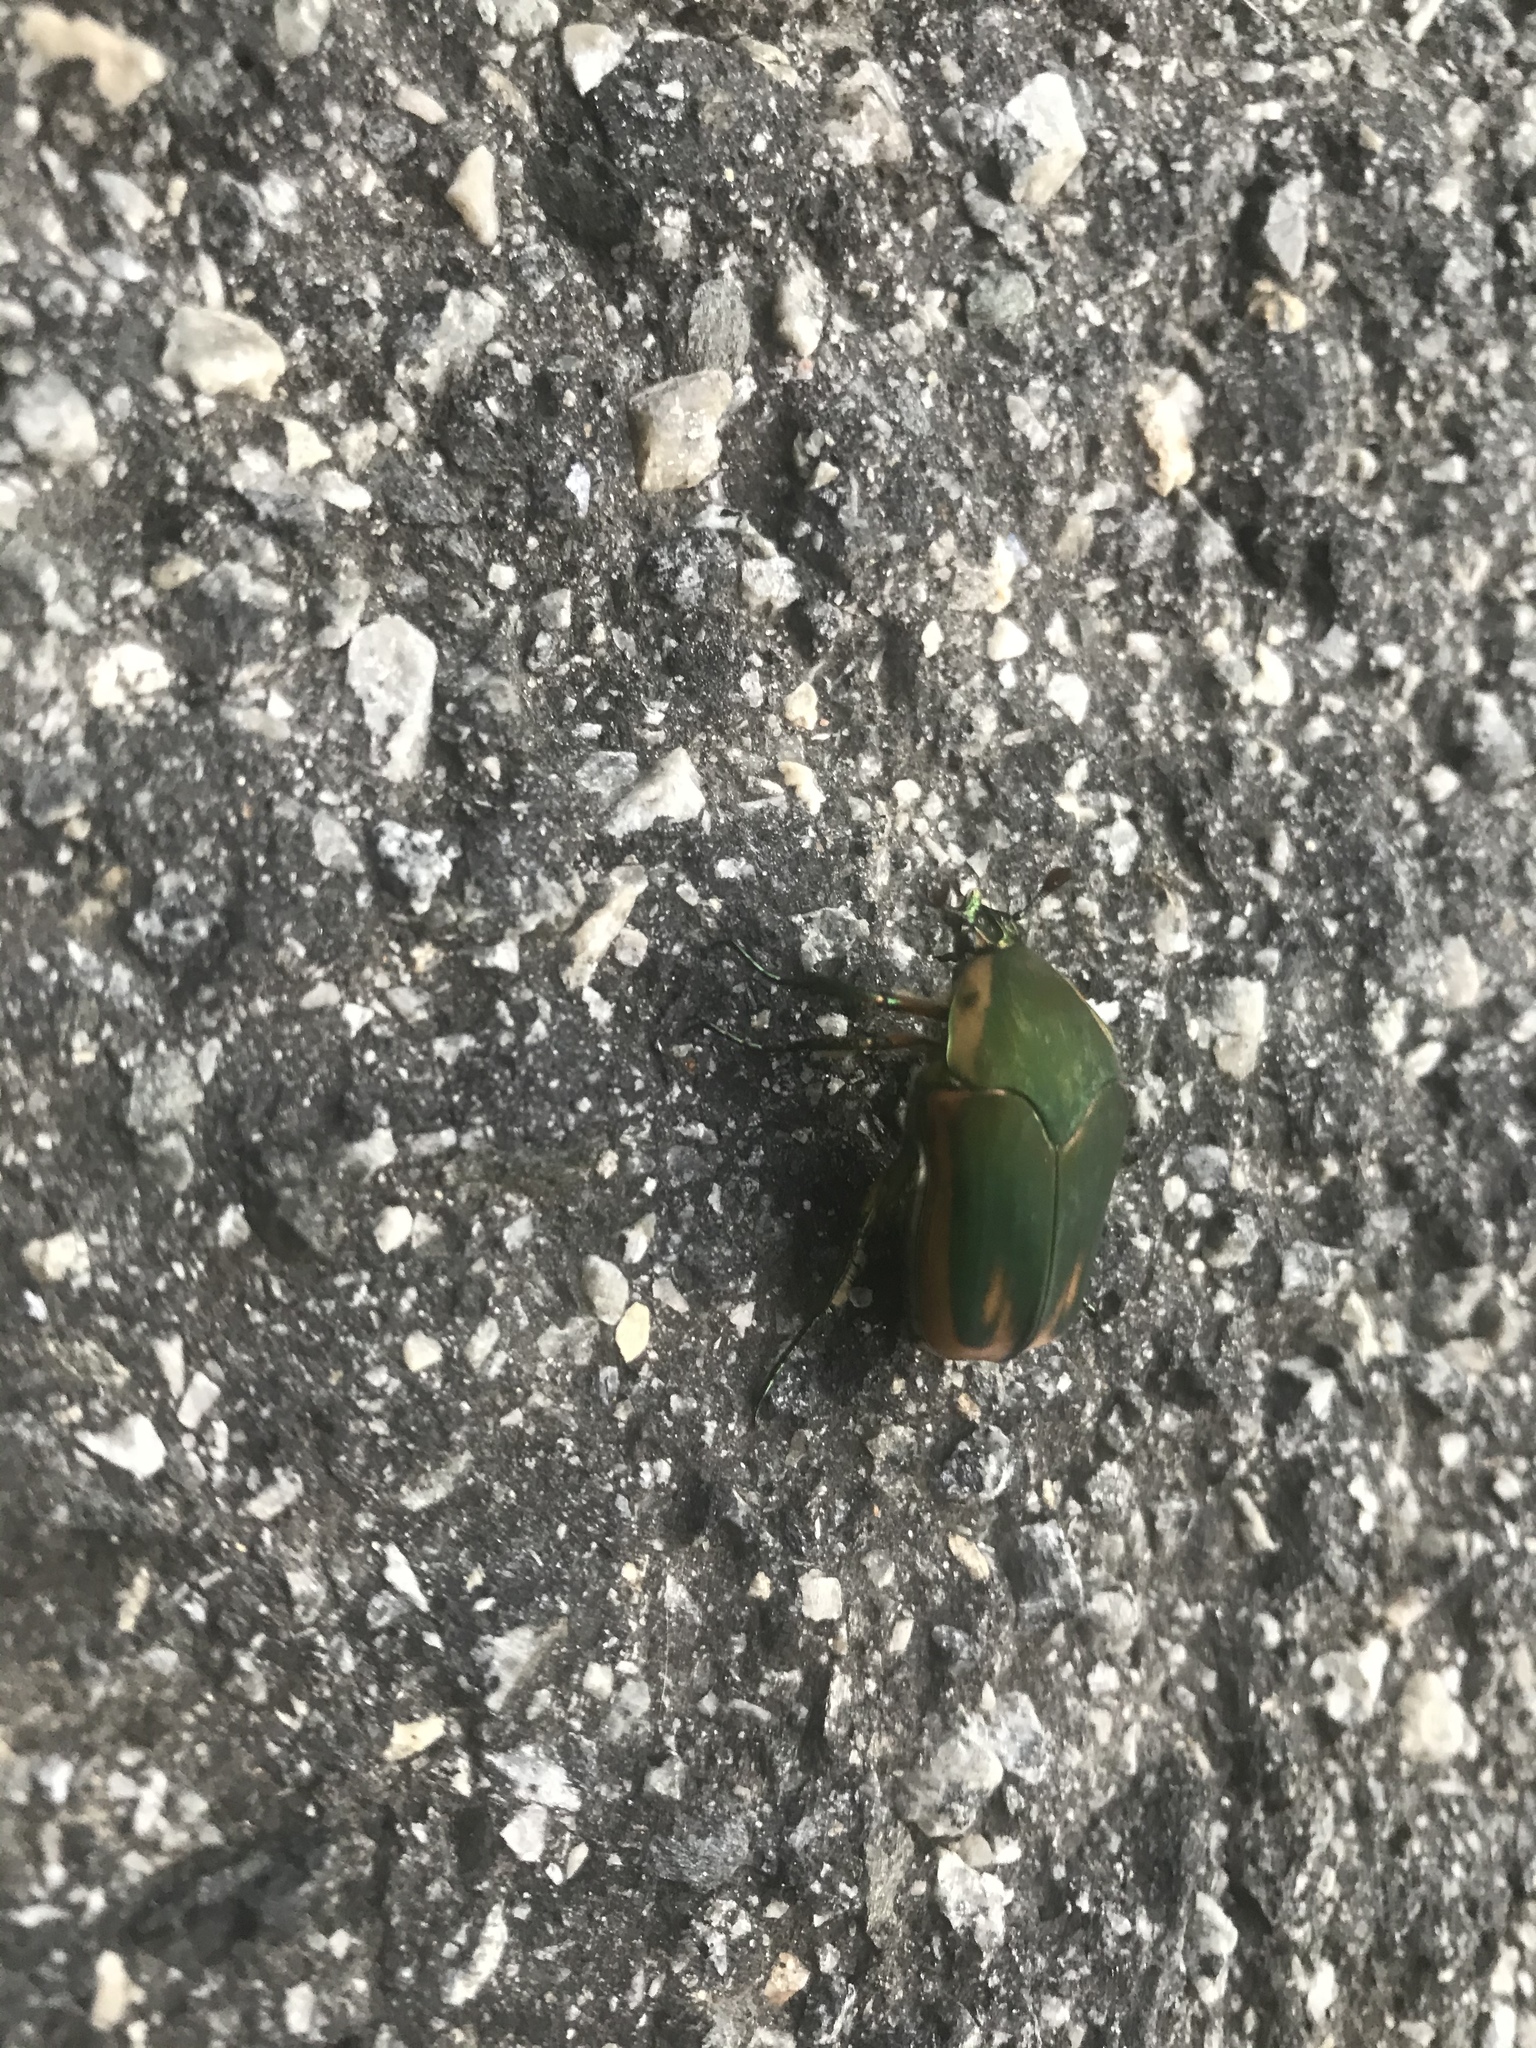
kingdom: Animalia
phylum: Arthropoda
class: Insecta
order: Coleoptera
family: Scarabaeidae
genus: Cotinis
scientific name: Cotinis nitida
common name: Common green june beetle
